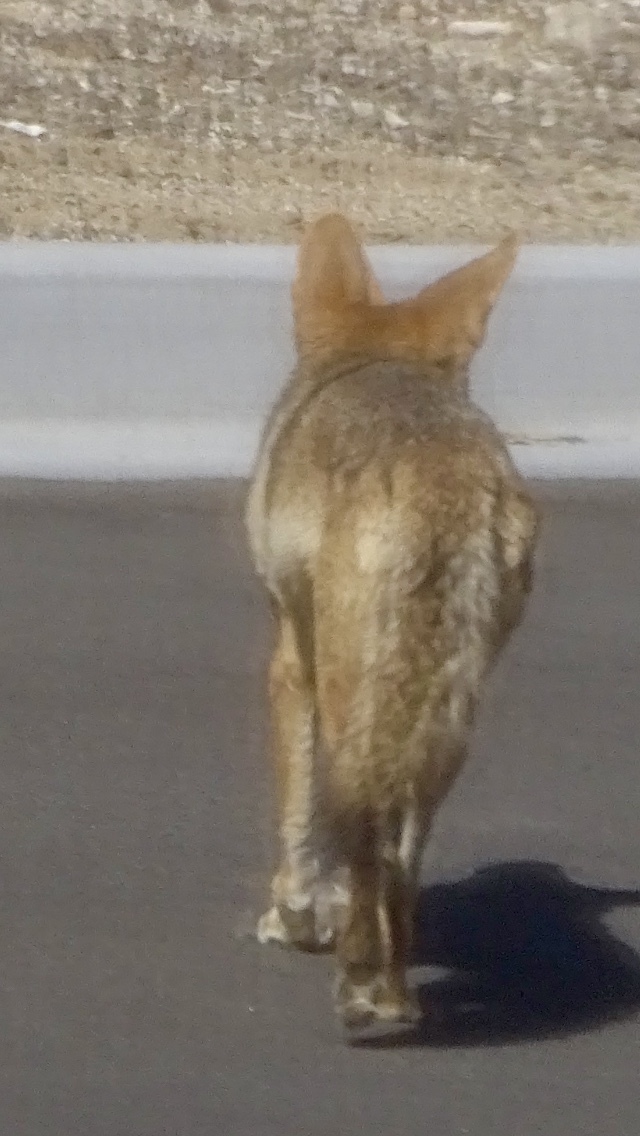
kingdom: Animalia
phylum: Chordata
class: Mammalia
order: Carnivora
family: Canidae
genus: Canis
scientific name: Canis latrans
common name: Coyote
